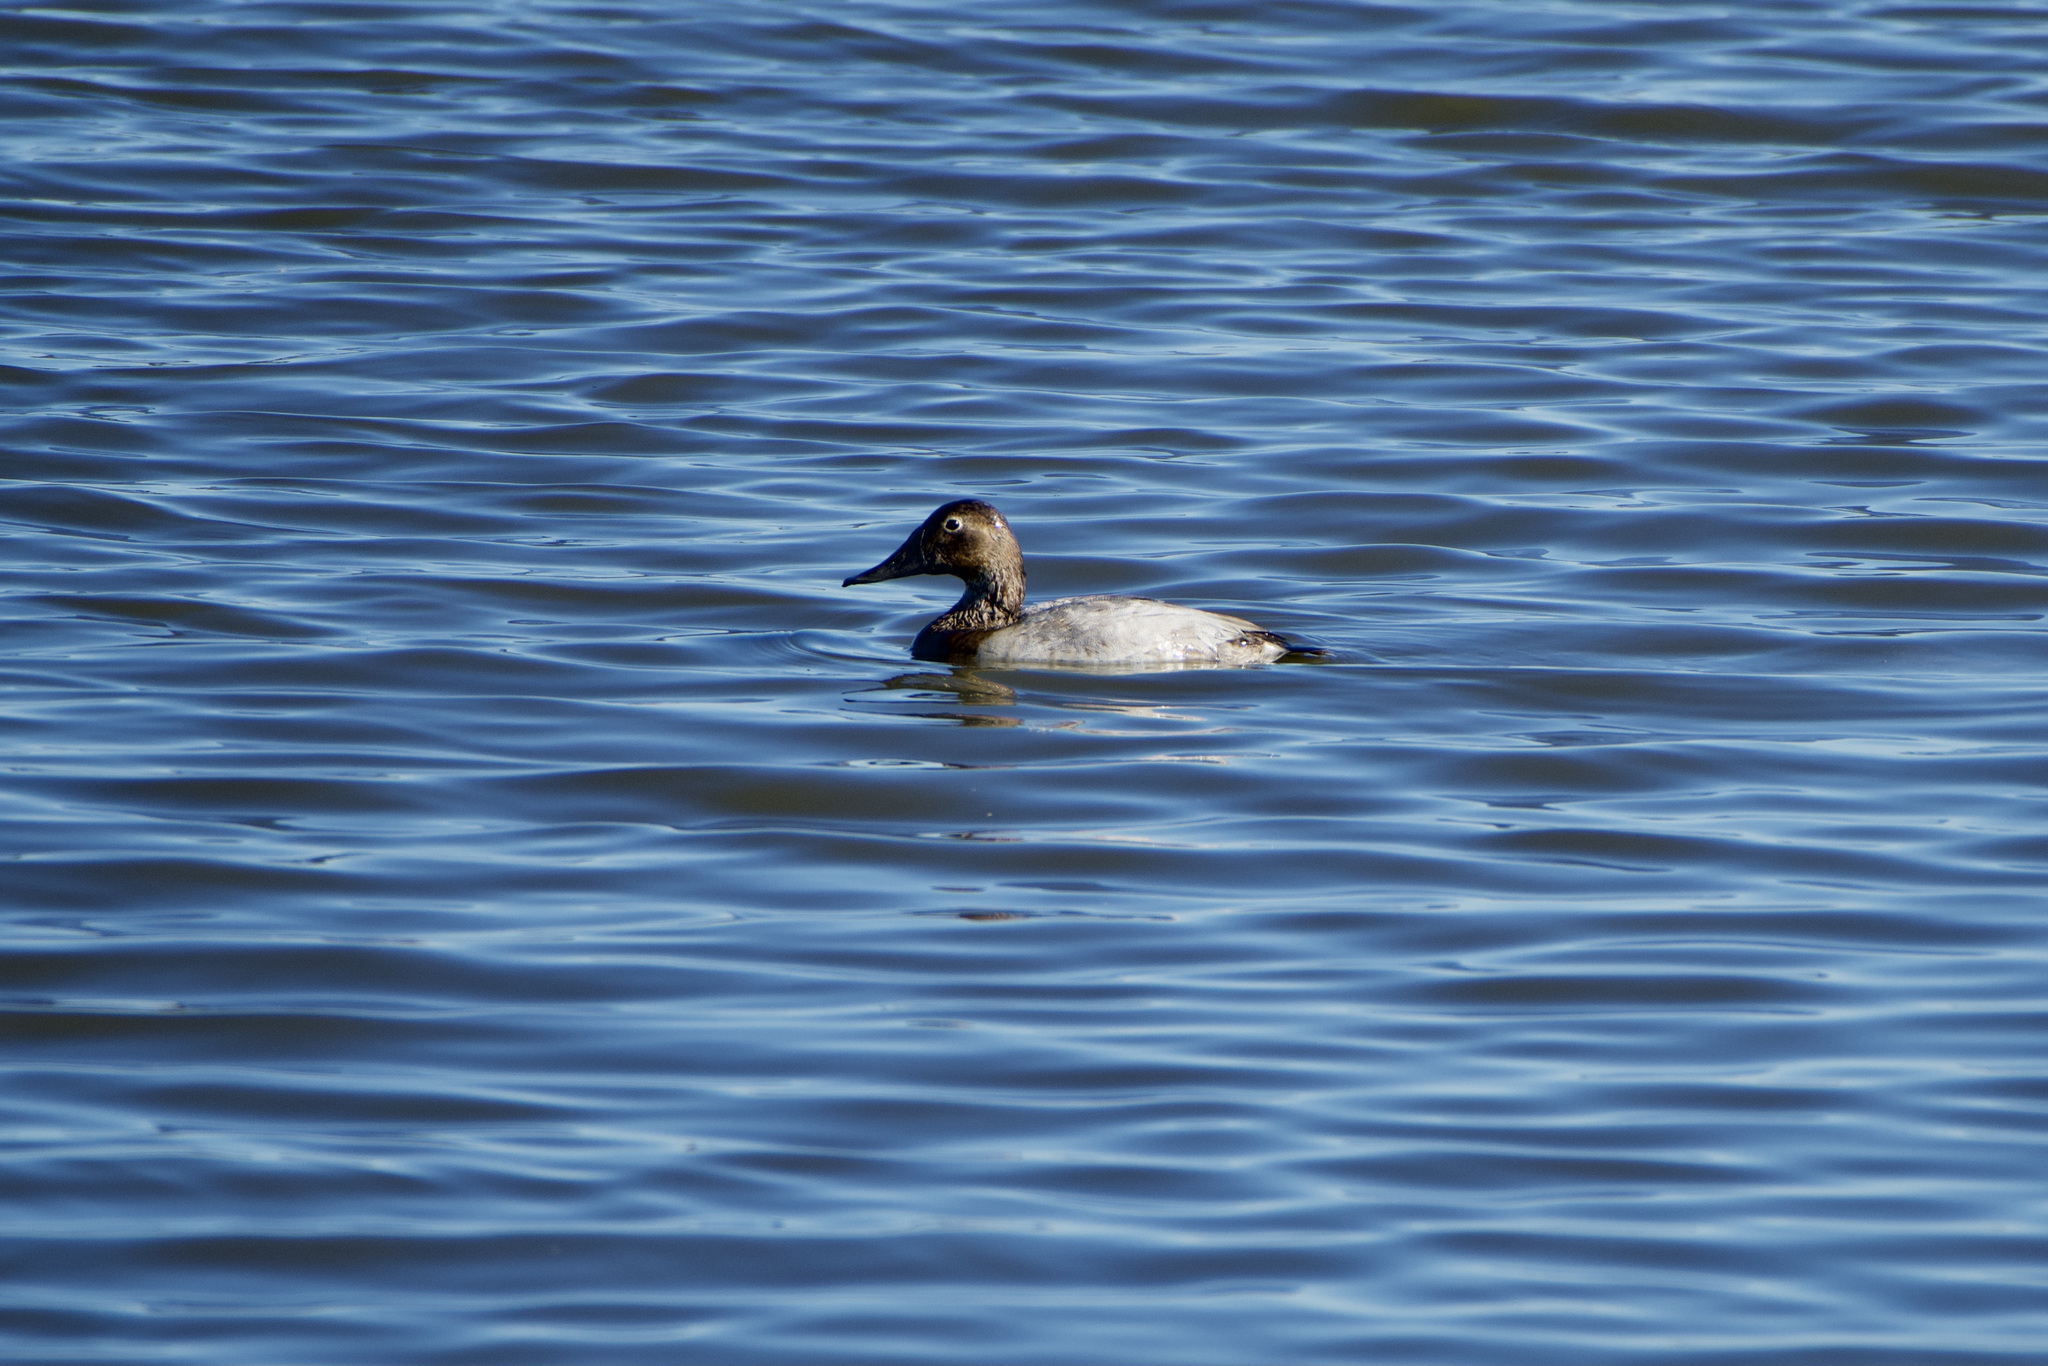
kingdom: Animalia
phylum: Chordata
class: Aves
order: Anseriformes
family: Anatidae
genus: Aythya
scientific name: Aythya valisineria
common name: Canvasback
